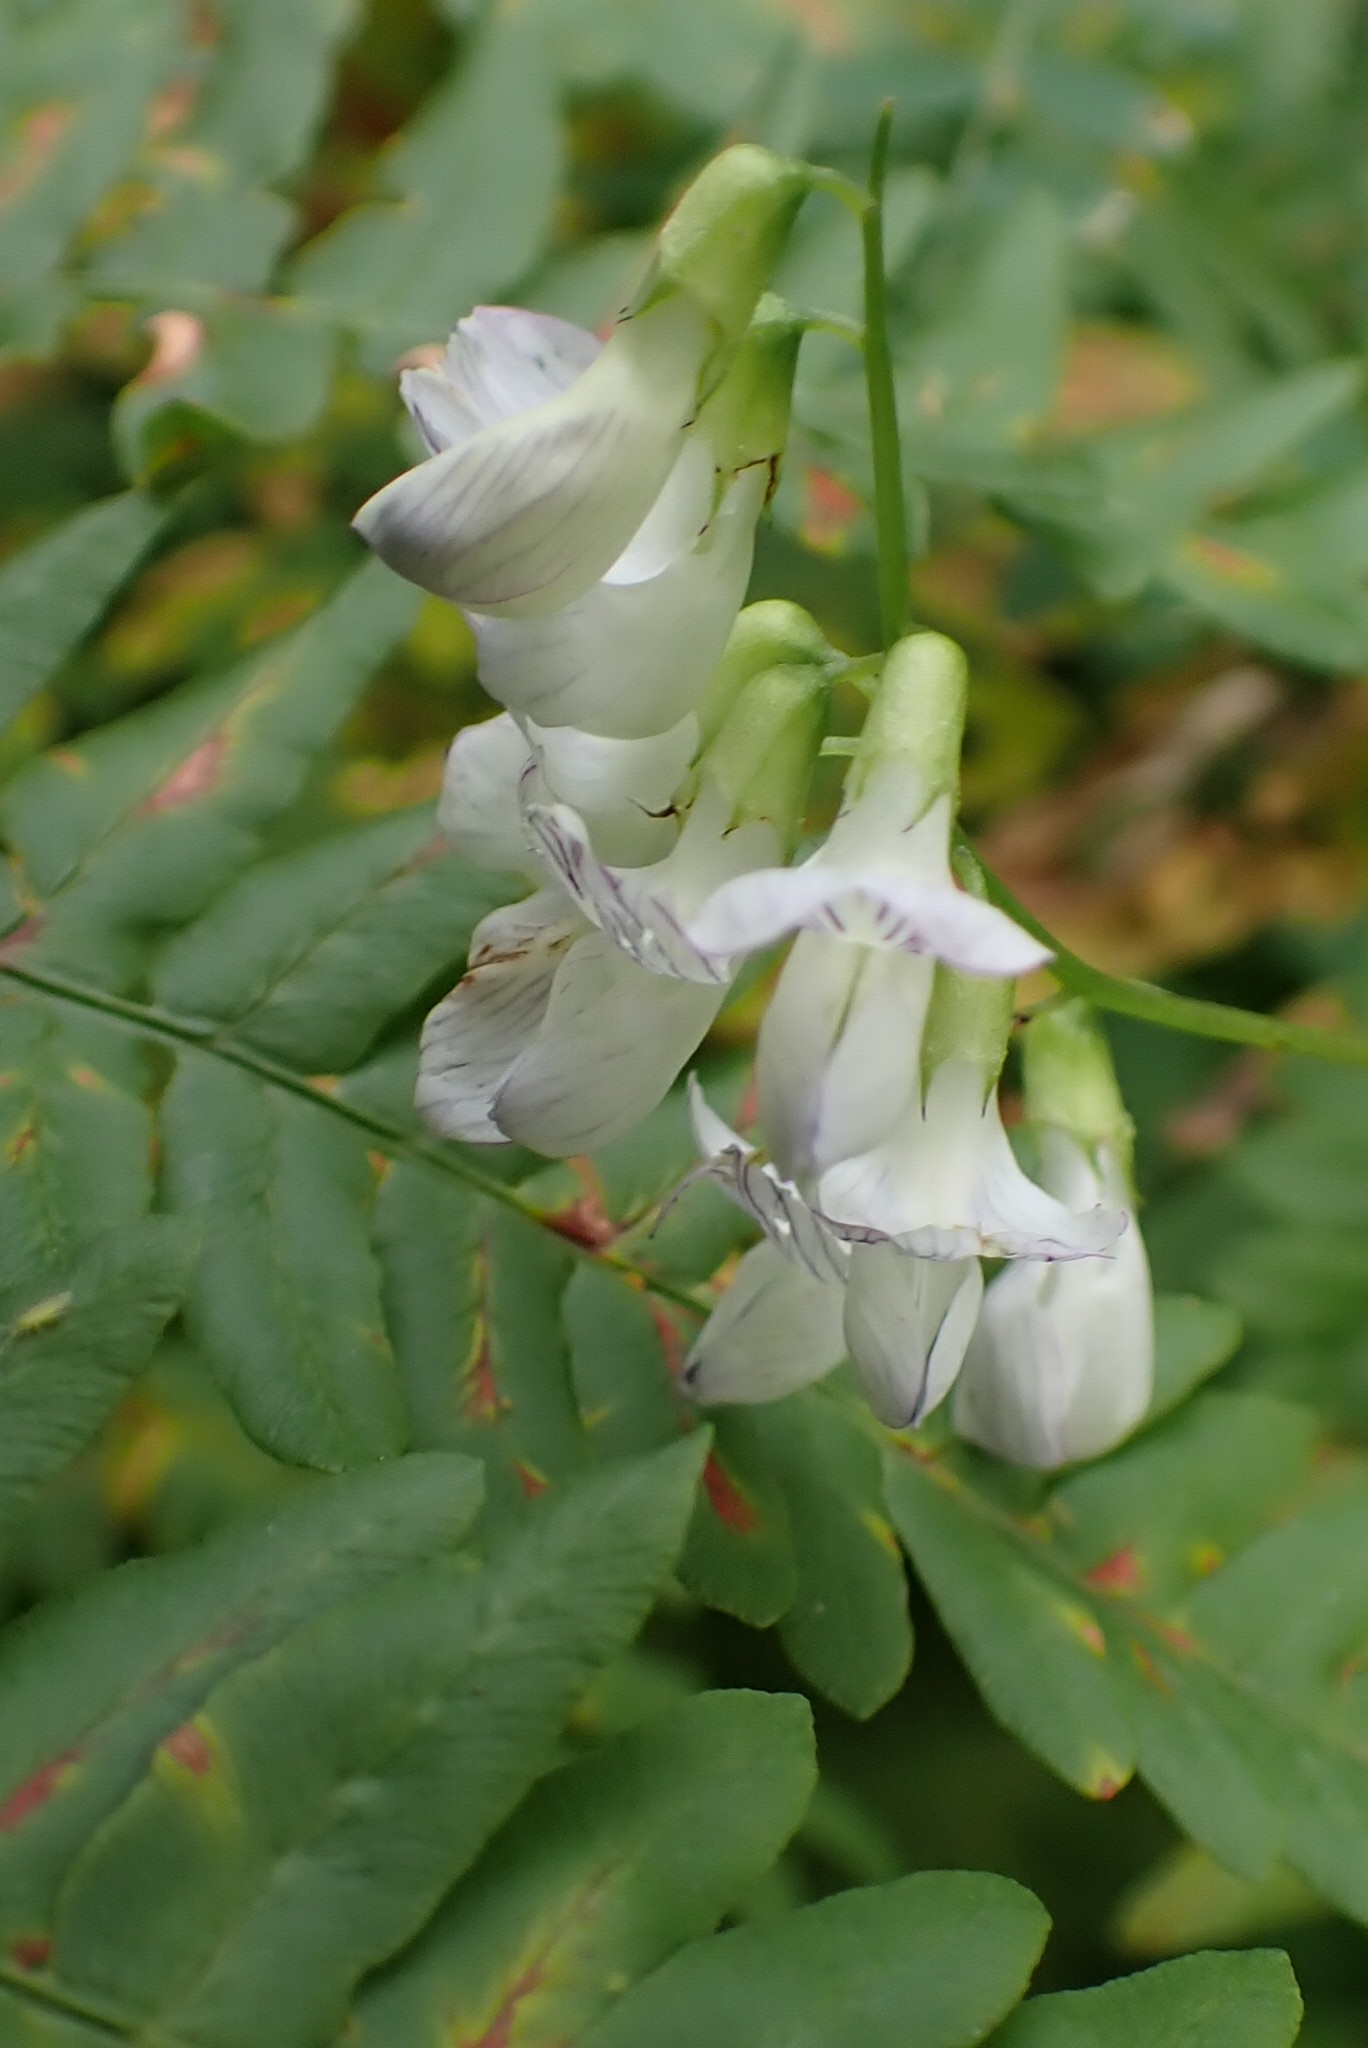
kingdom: Plantae
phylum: Tracheophyta
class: Magnoliopsida
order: Fabales
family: Fabaceae
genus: Vicia
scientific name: Vicia sylvatica
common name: Wood vetch
